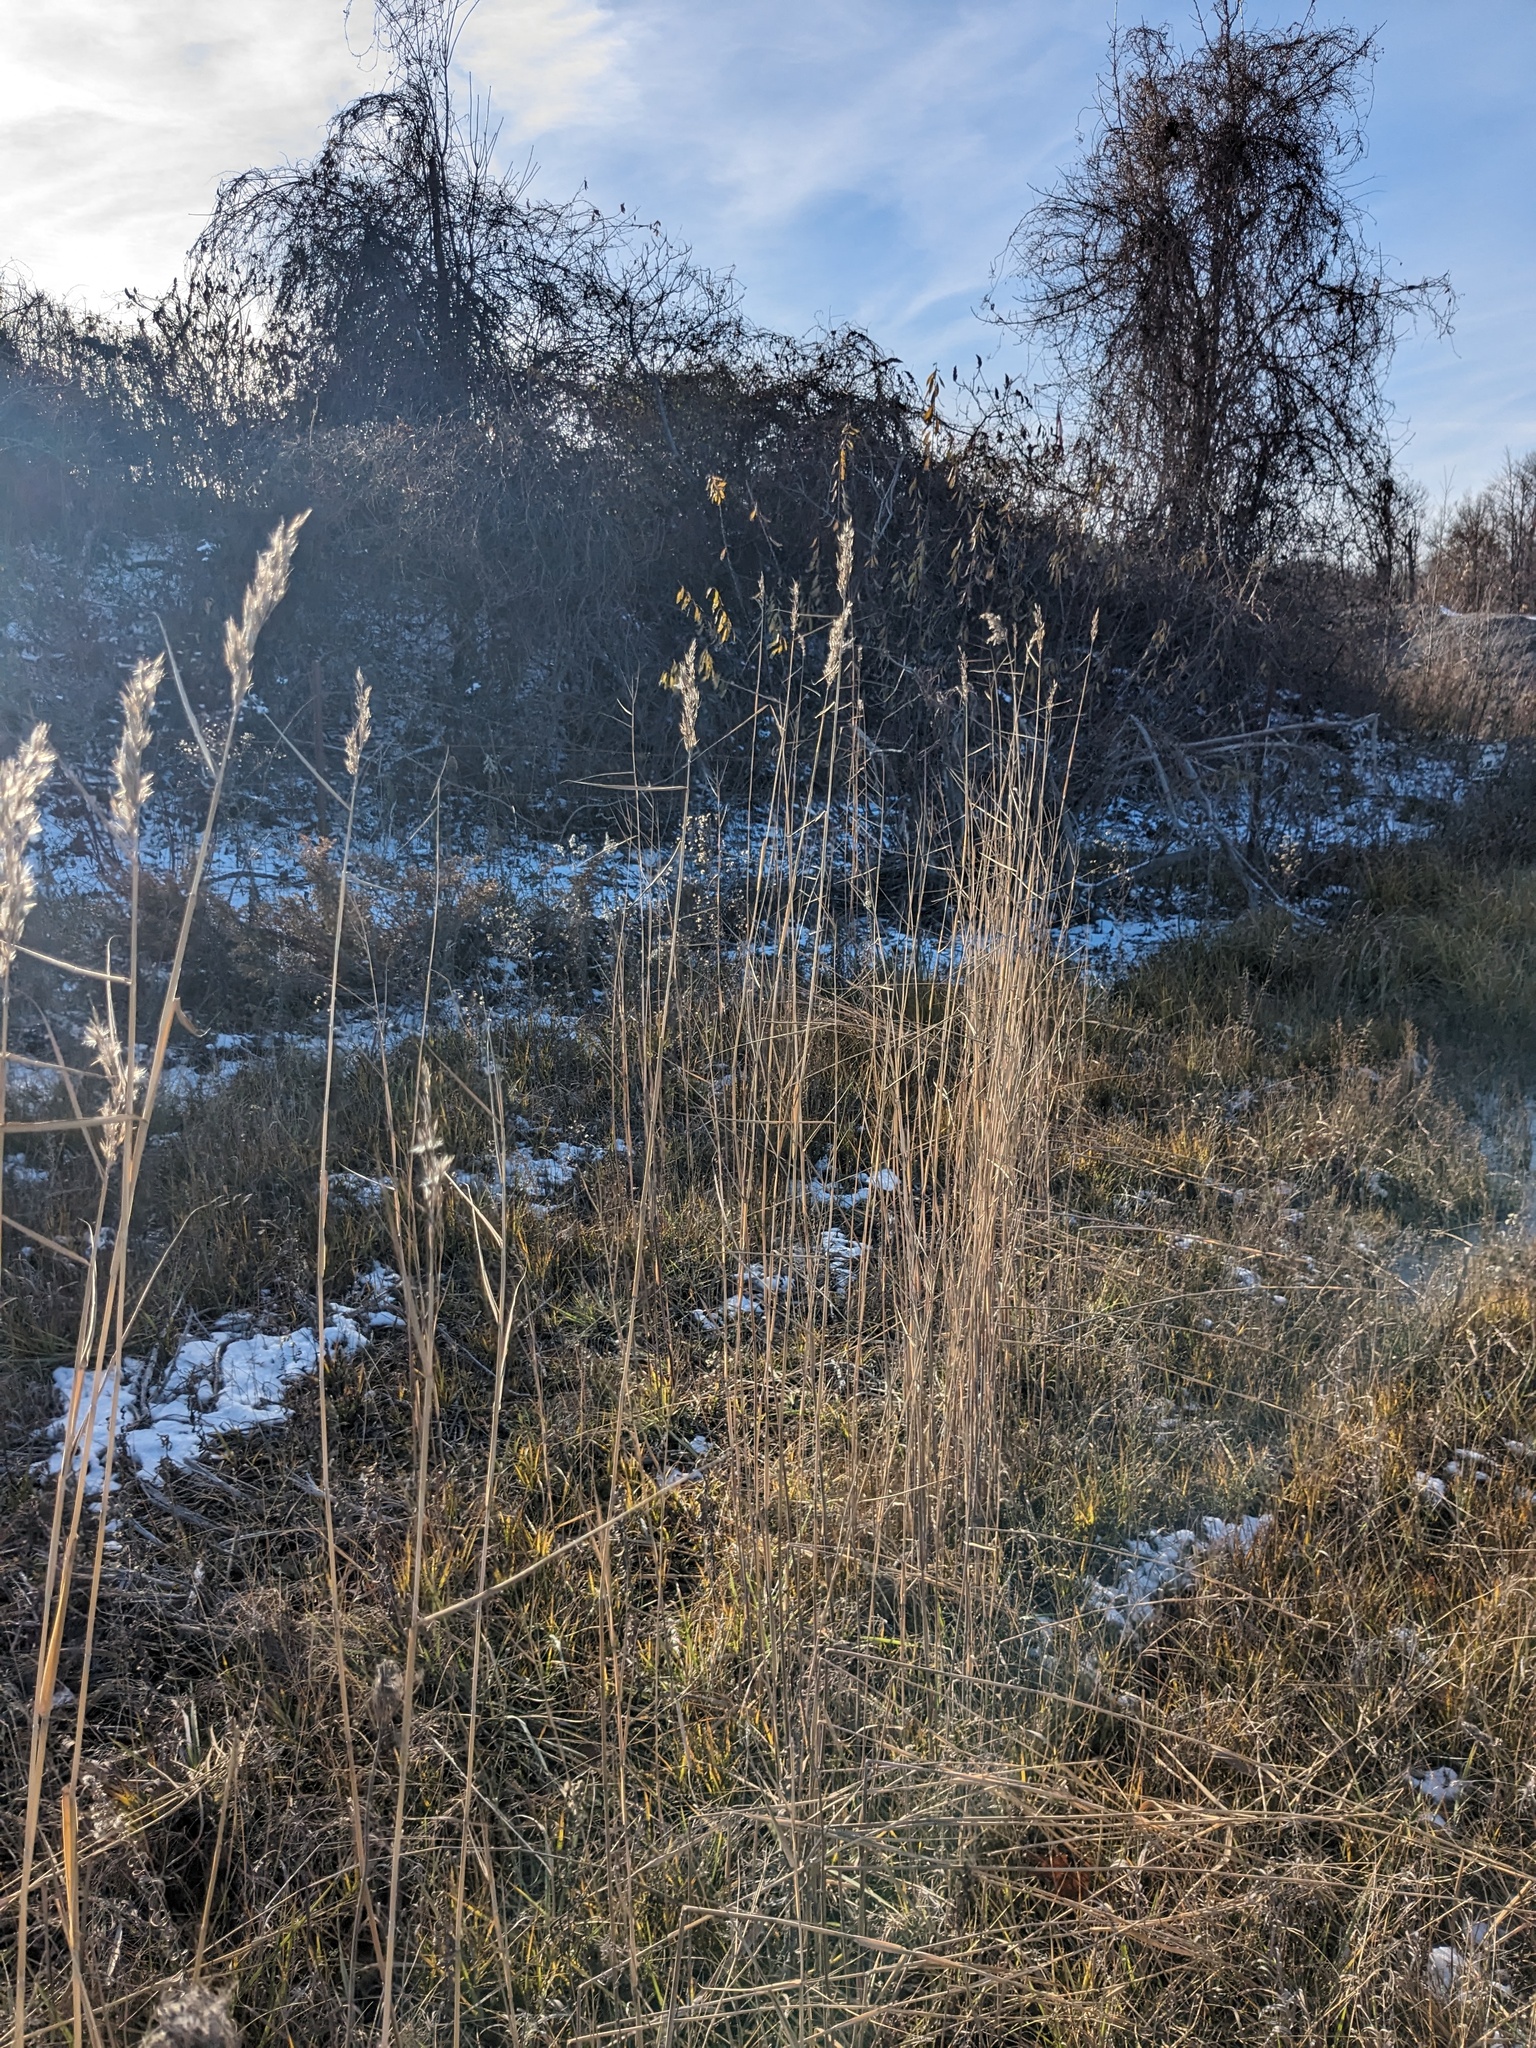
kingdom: Plantae
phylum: Tracheophyta
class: Liliopsida
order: Poales
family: Poaceae
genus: Phragmites
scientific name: Phragmites australis
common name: Common reed
